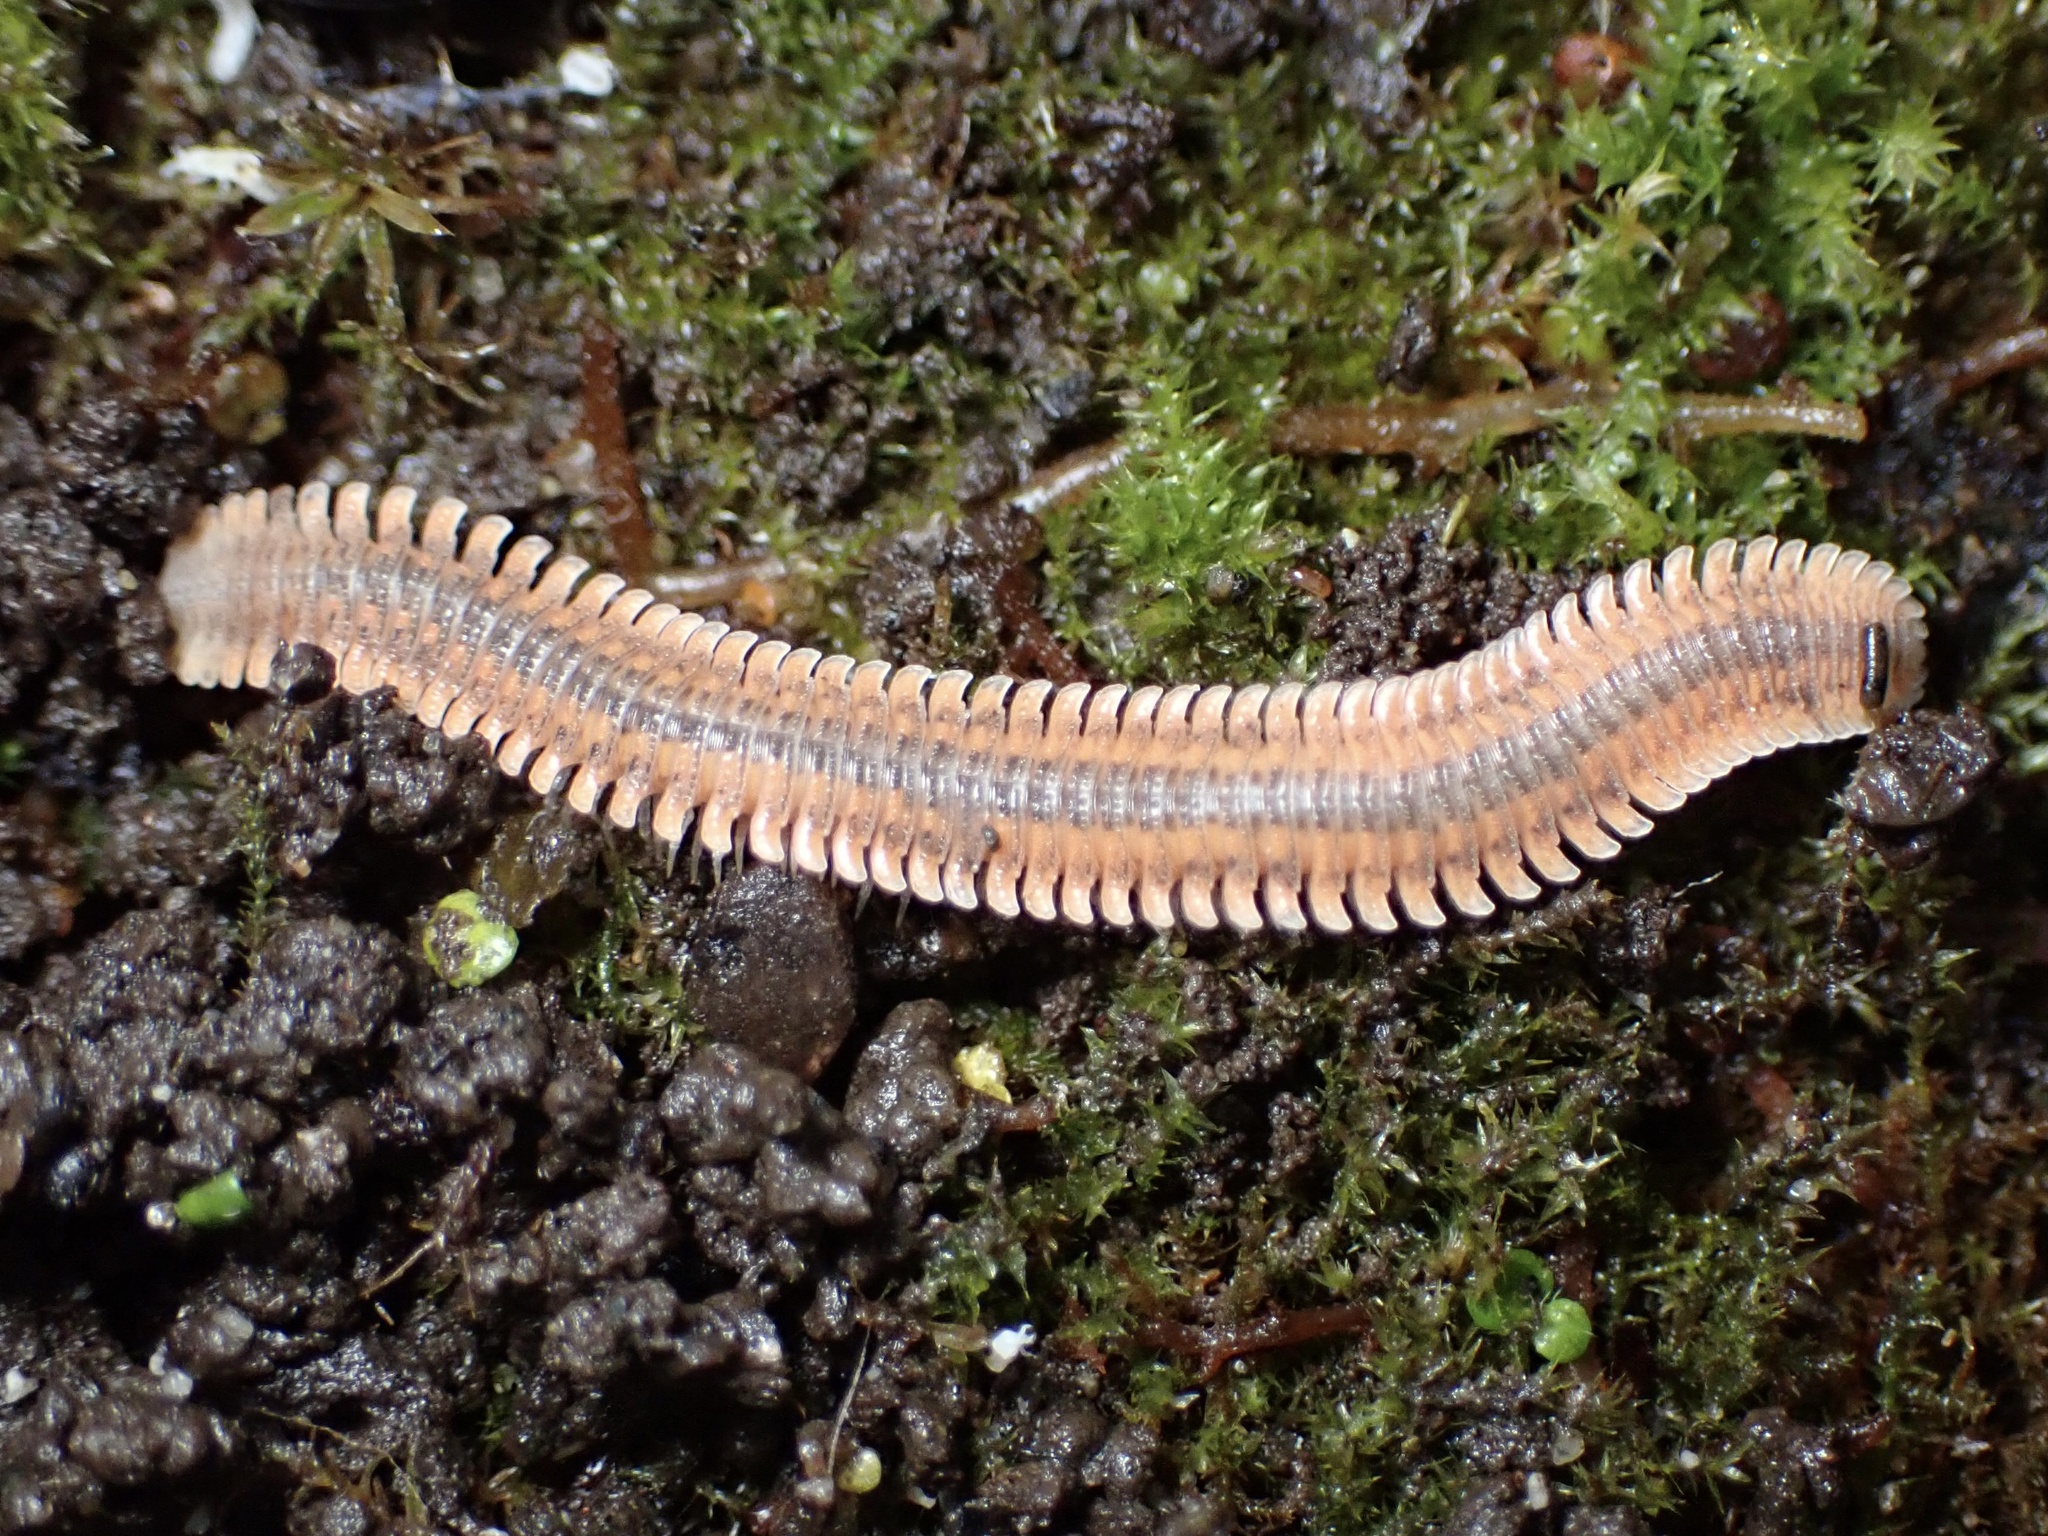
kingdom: Animalia
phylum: Arthropoda
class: Diplopoda
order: Platydesmida
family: Andrognathidae
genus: Brachycybe
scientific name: Brachycybe producta
